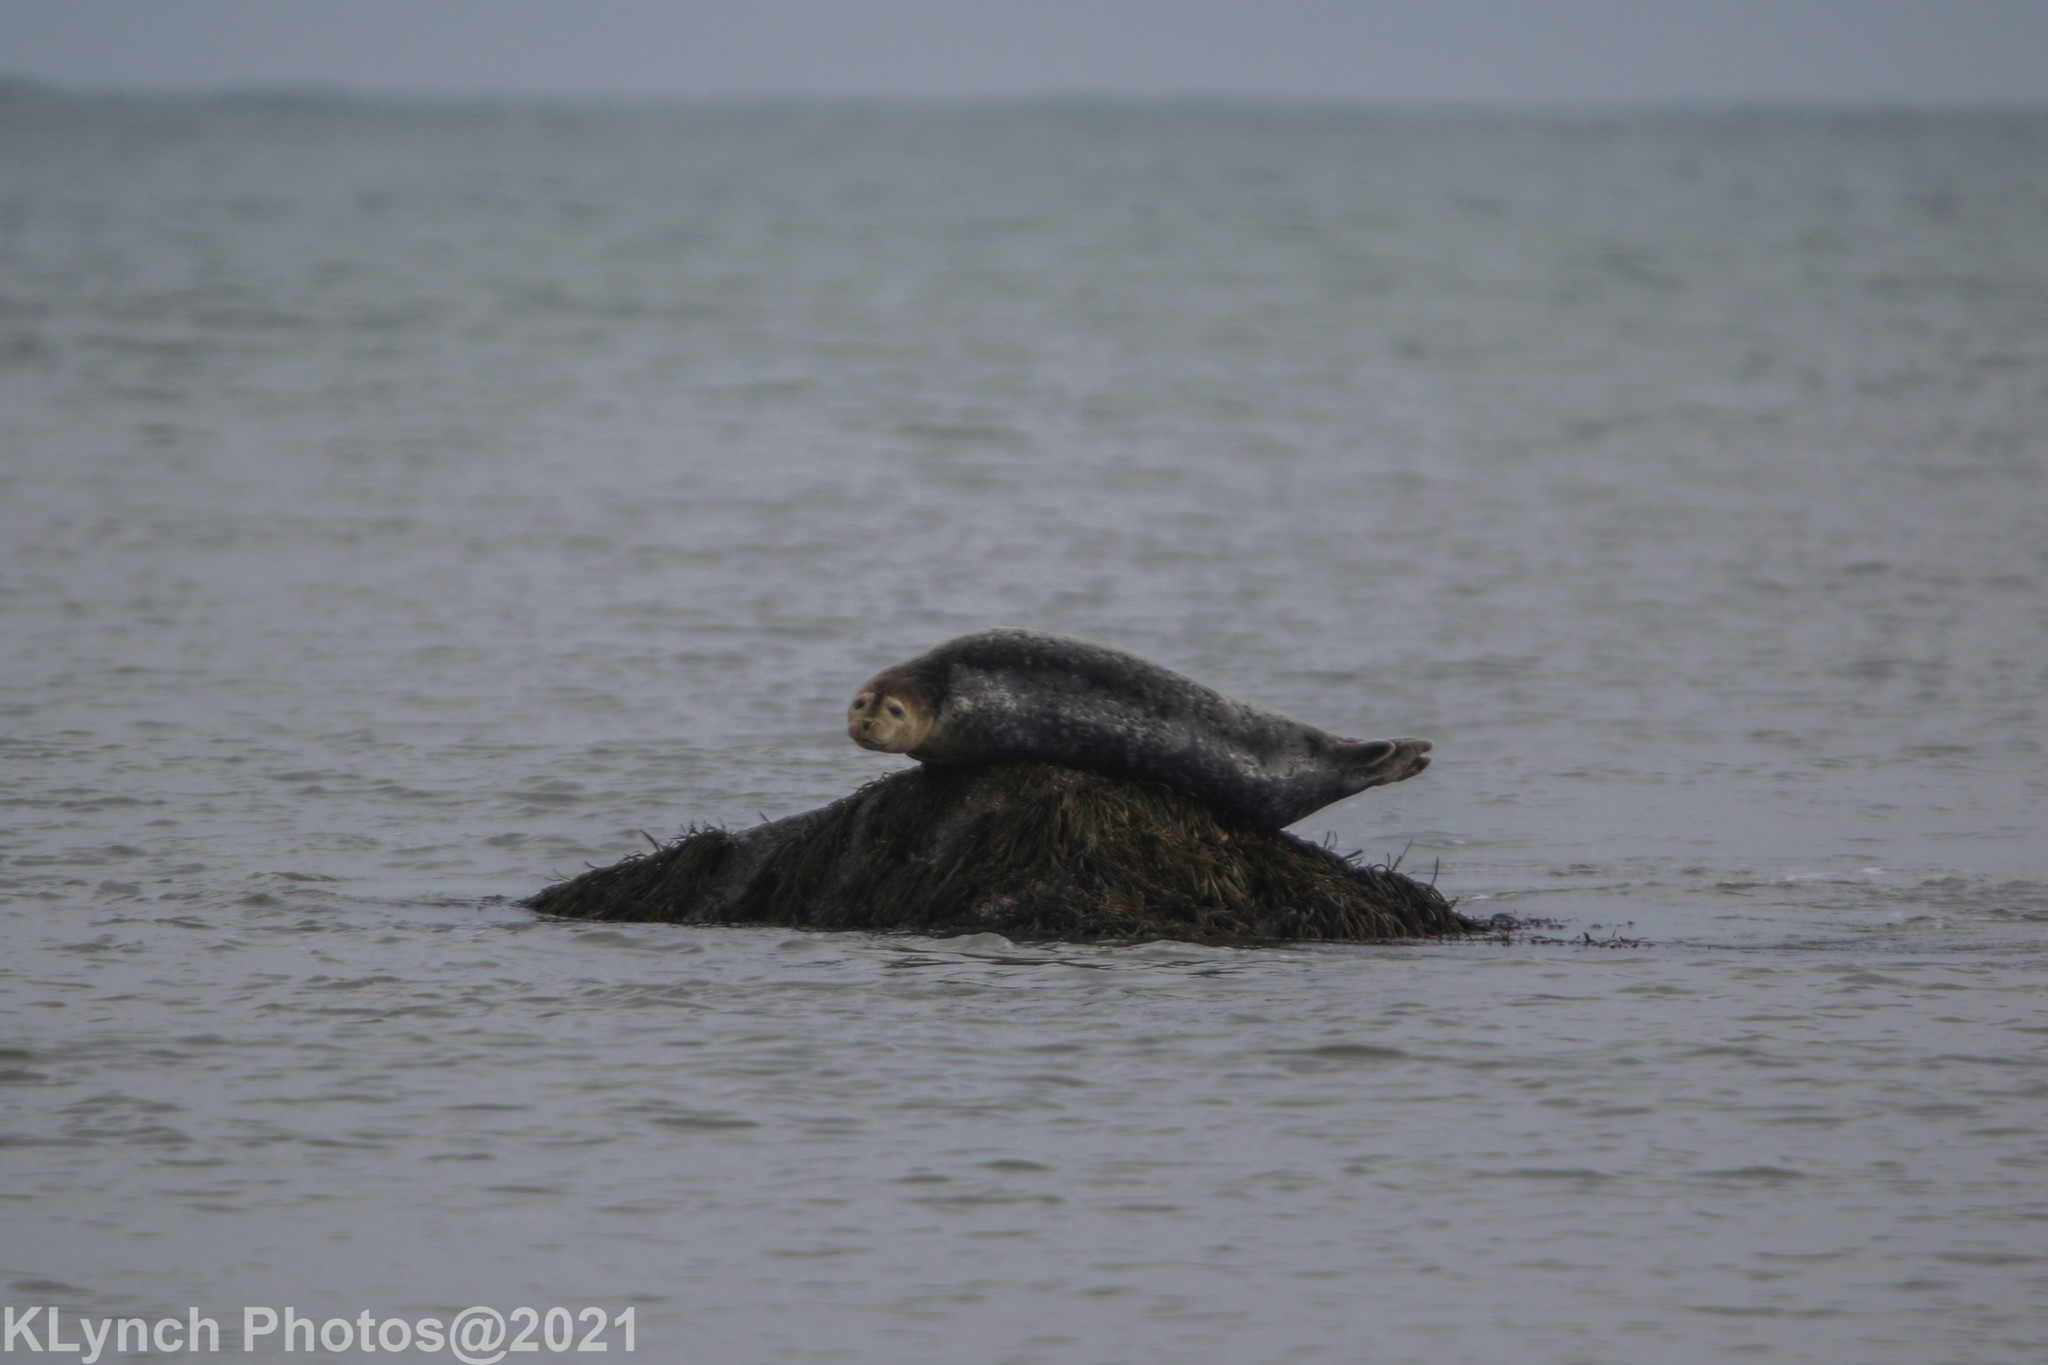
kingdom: Animalia
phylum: Chordata
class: Mammalia
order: Carnivora
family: Phocidae
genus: Phoca
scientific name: Phoca vitulina
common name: Harbor seal
